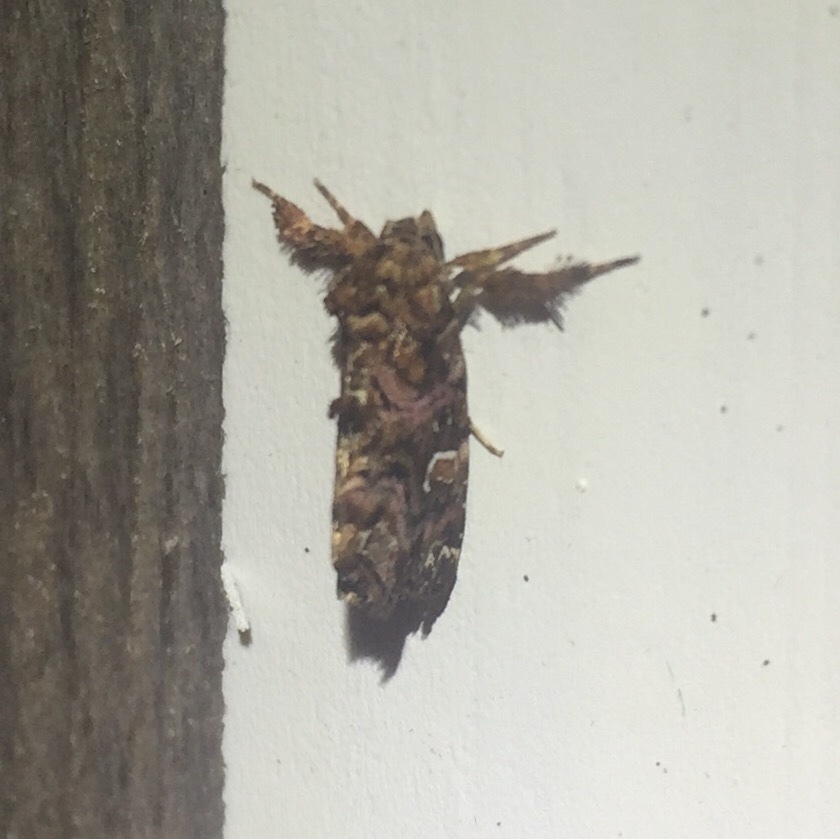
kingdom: Animalia
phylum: Arthropoda
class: Insecta
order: Lepidoptera
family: Noctuidae
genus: Callopistria
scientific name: Callopistria mollissima
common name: Pink-shaded fern moth
